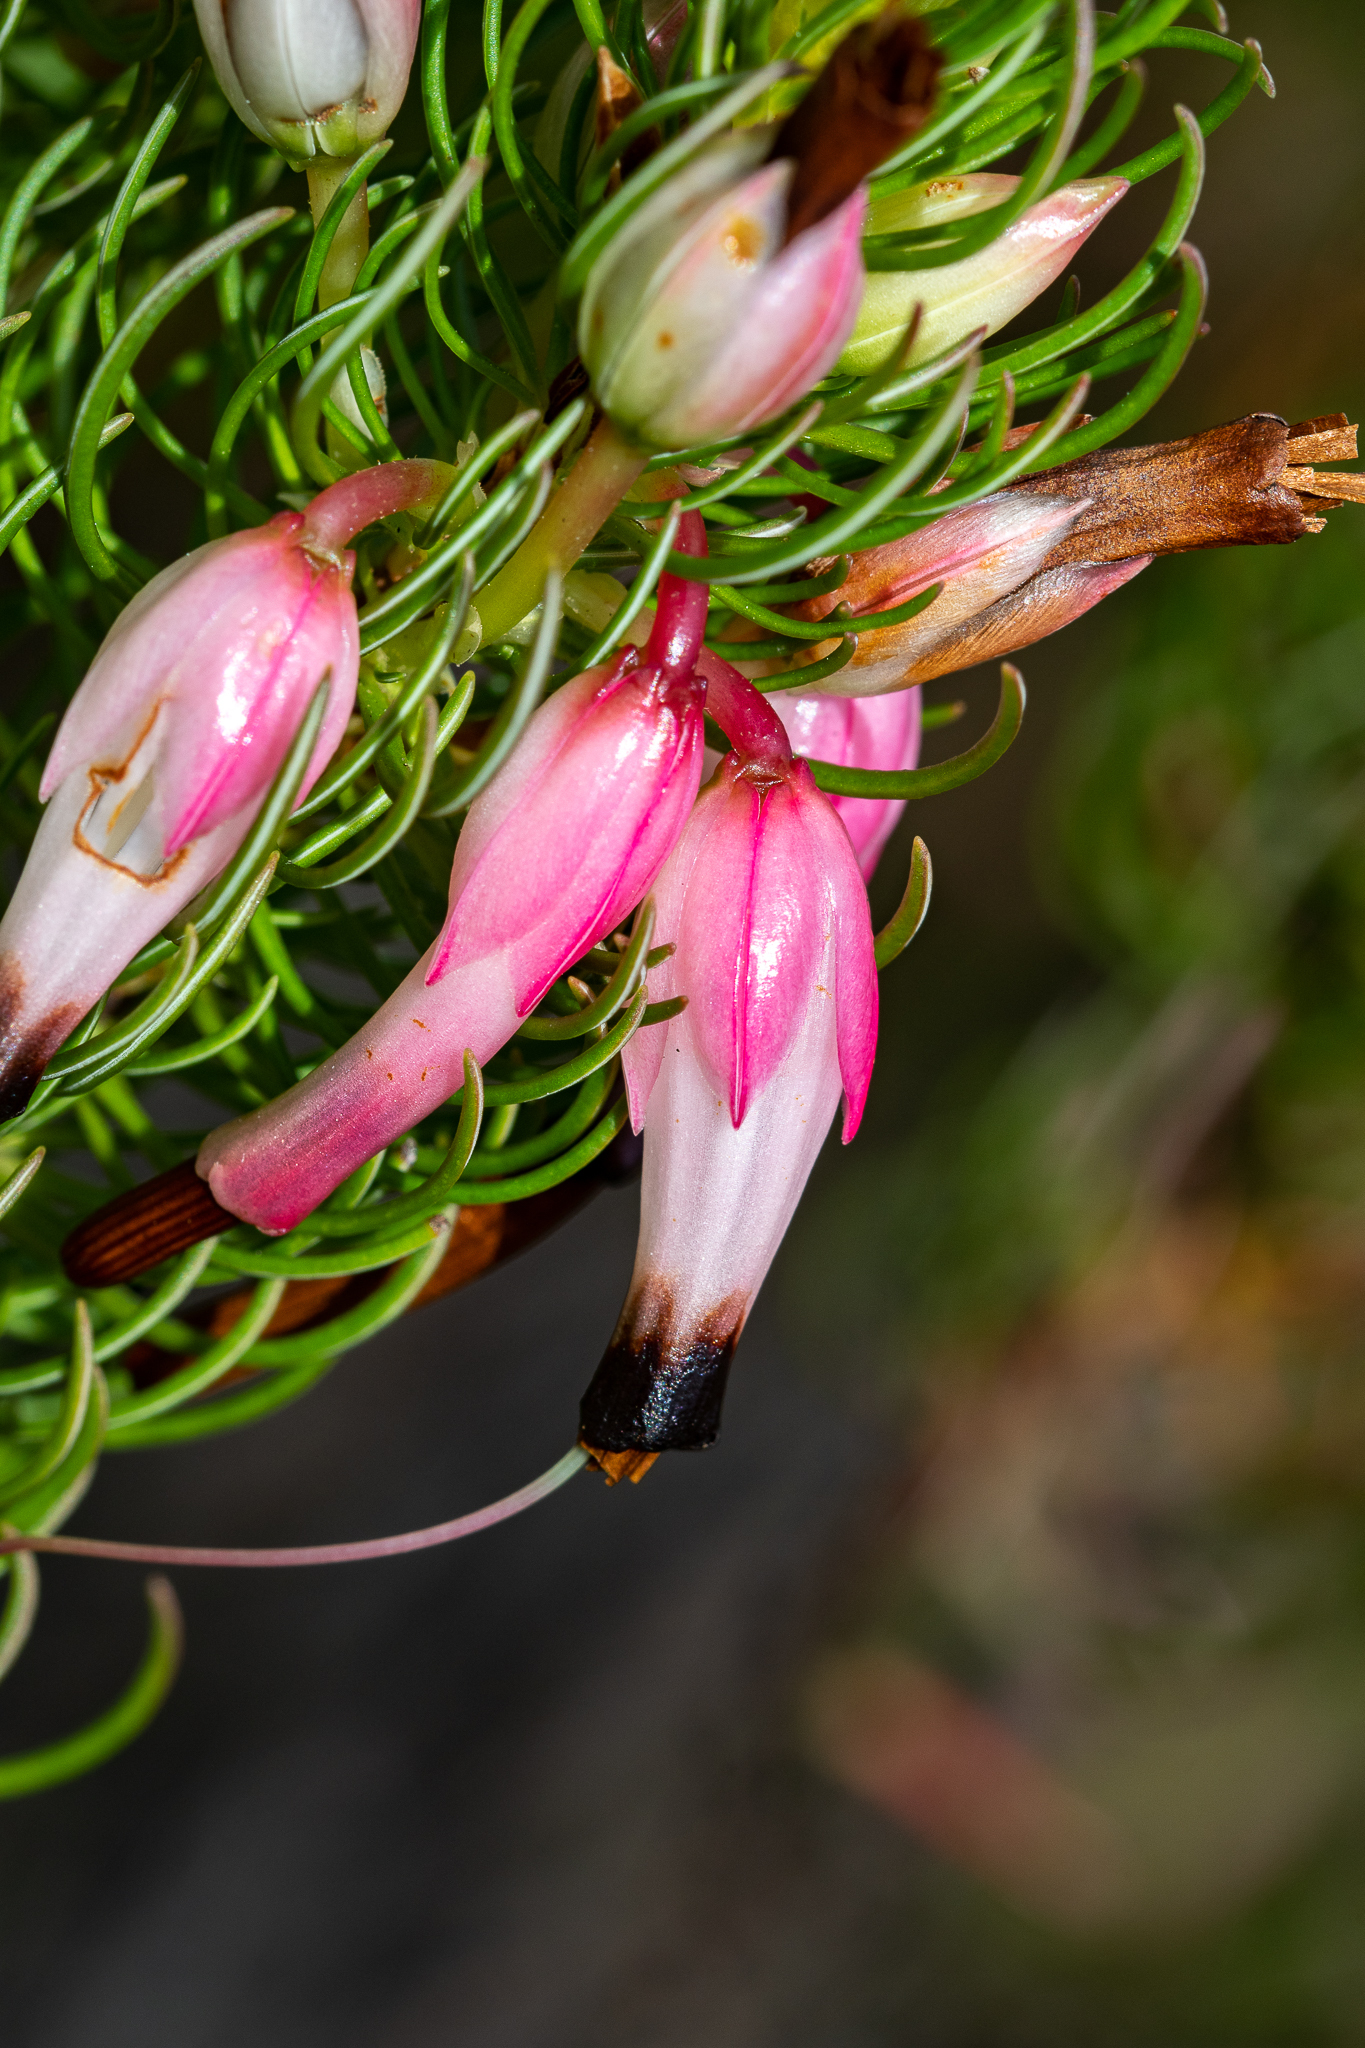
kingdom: Plantae
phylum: Tracheophyta
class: Magnoliopsida
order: Ericales
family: Ericaceae
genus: Erica
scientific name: Erica plukenetii
